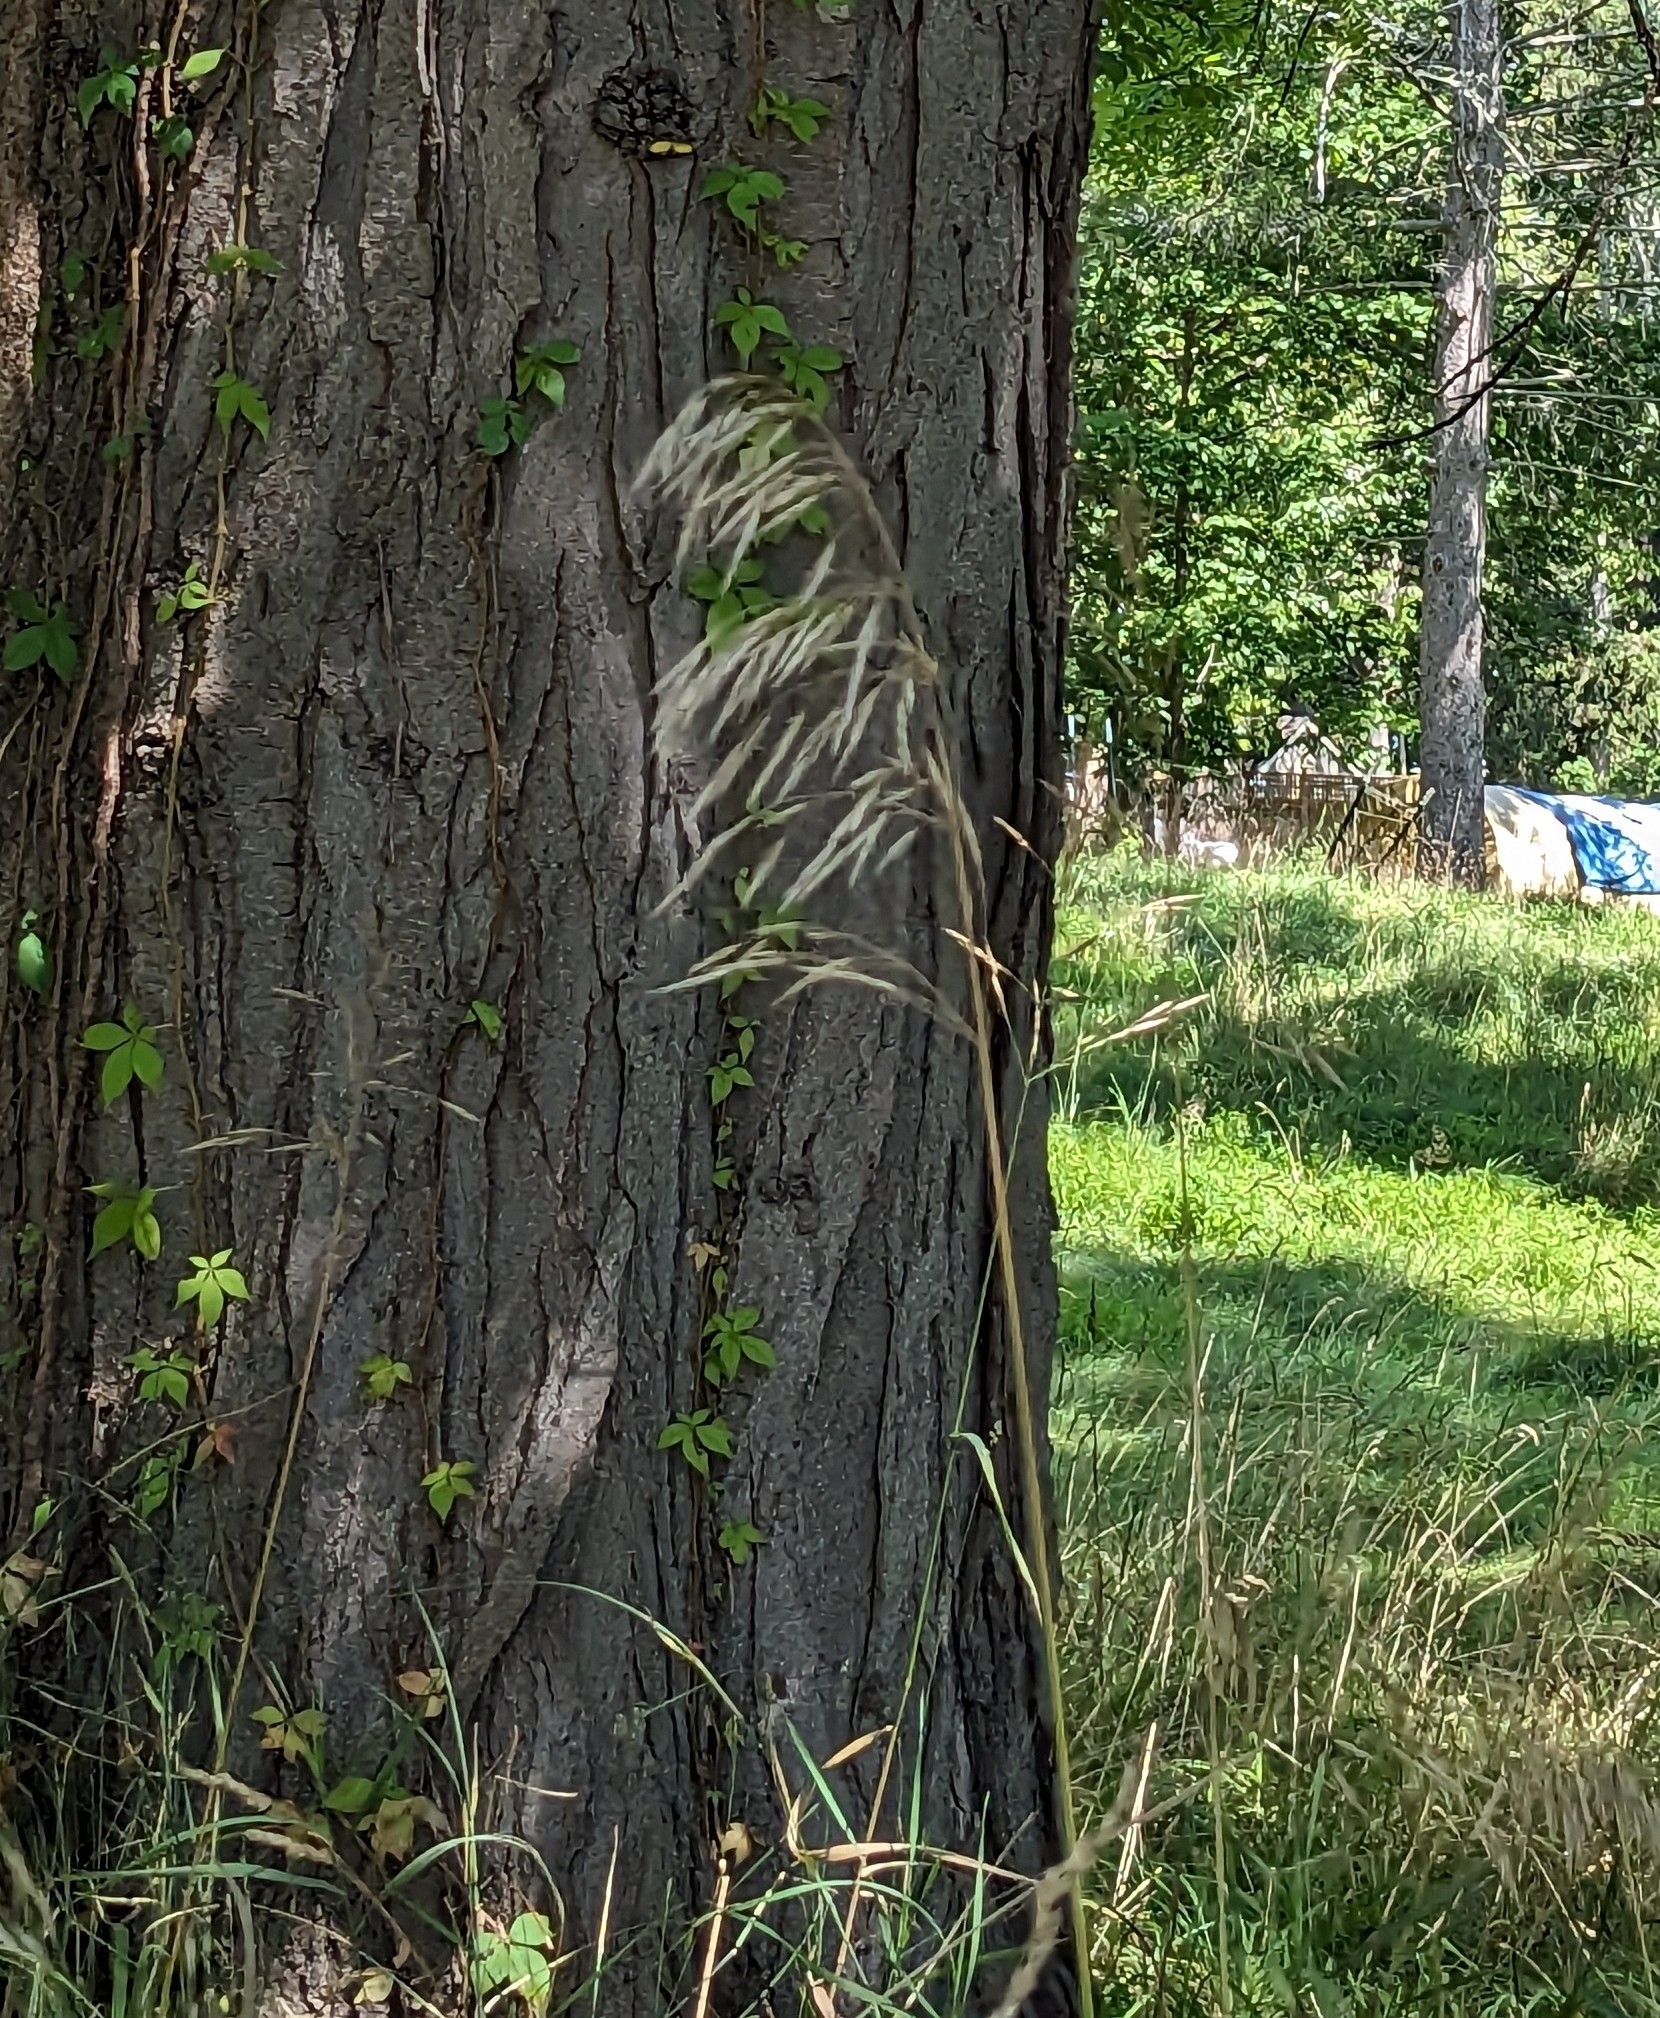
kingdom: Plantae
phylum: Tracheophyta
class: Liliopsida
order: Poales
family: Poaceae
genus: Bromus
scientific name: Bromus inermis
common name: Smooth brome
